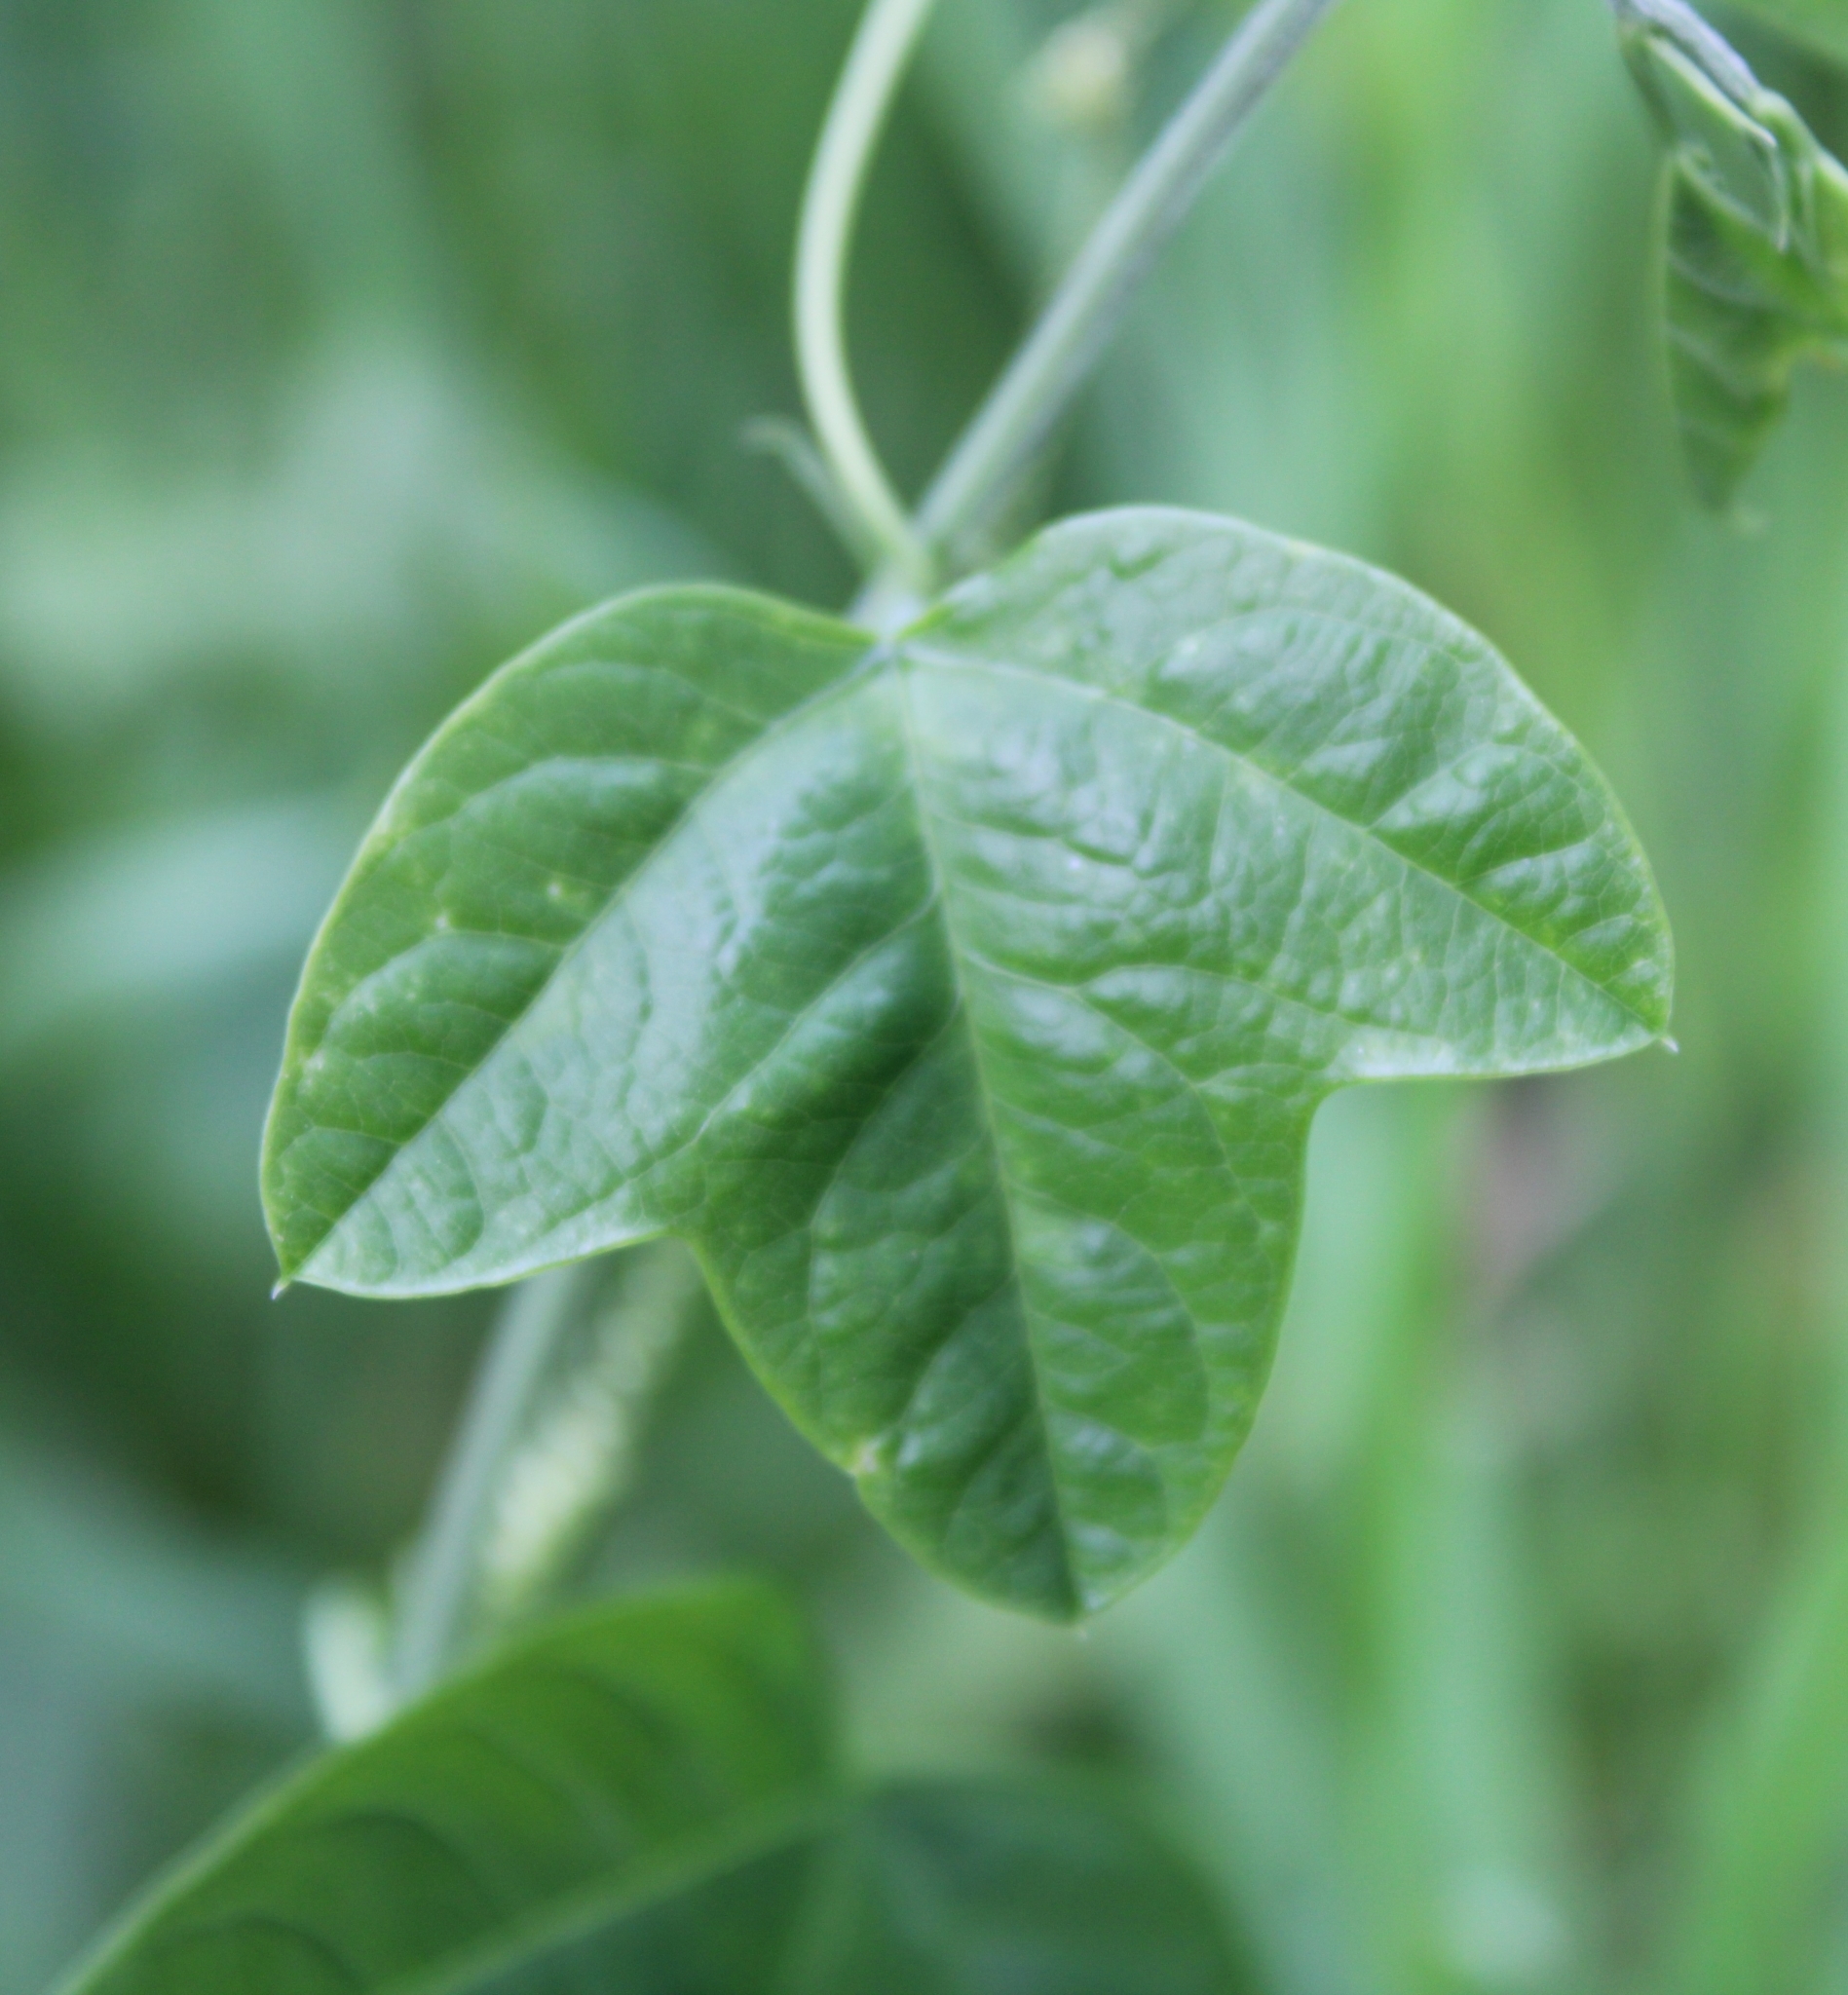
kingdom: Plantae
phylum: Tracheophyta
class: Magnoliopsida
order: Malpighiales
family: Passifloraceae
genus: Passiflora
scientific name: Passiflora lutea
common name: Yellow passionflower
